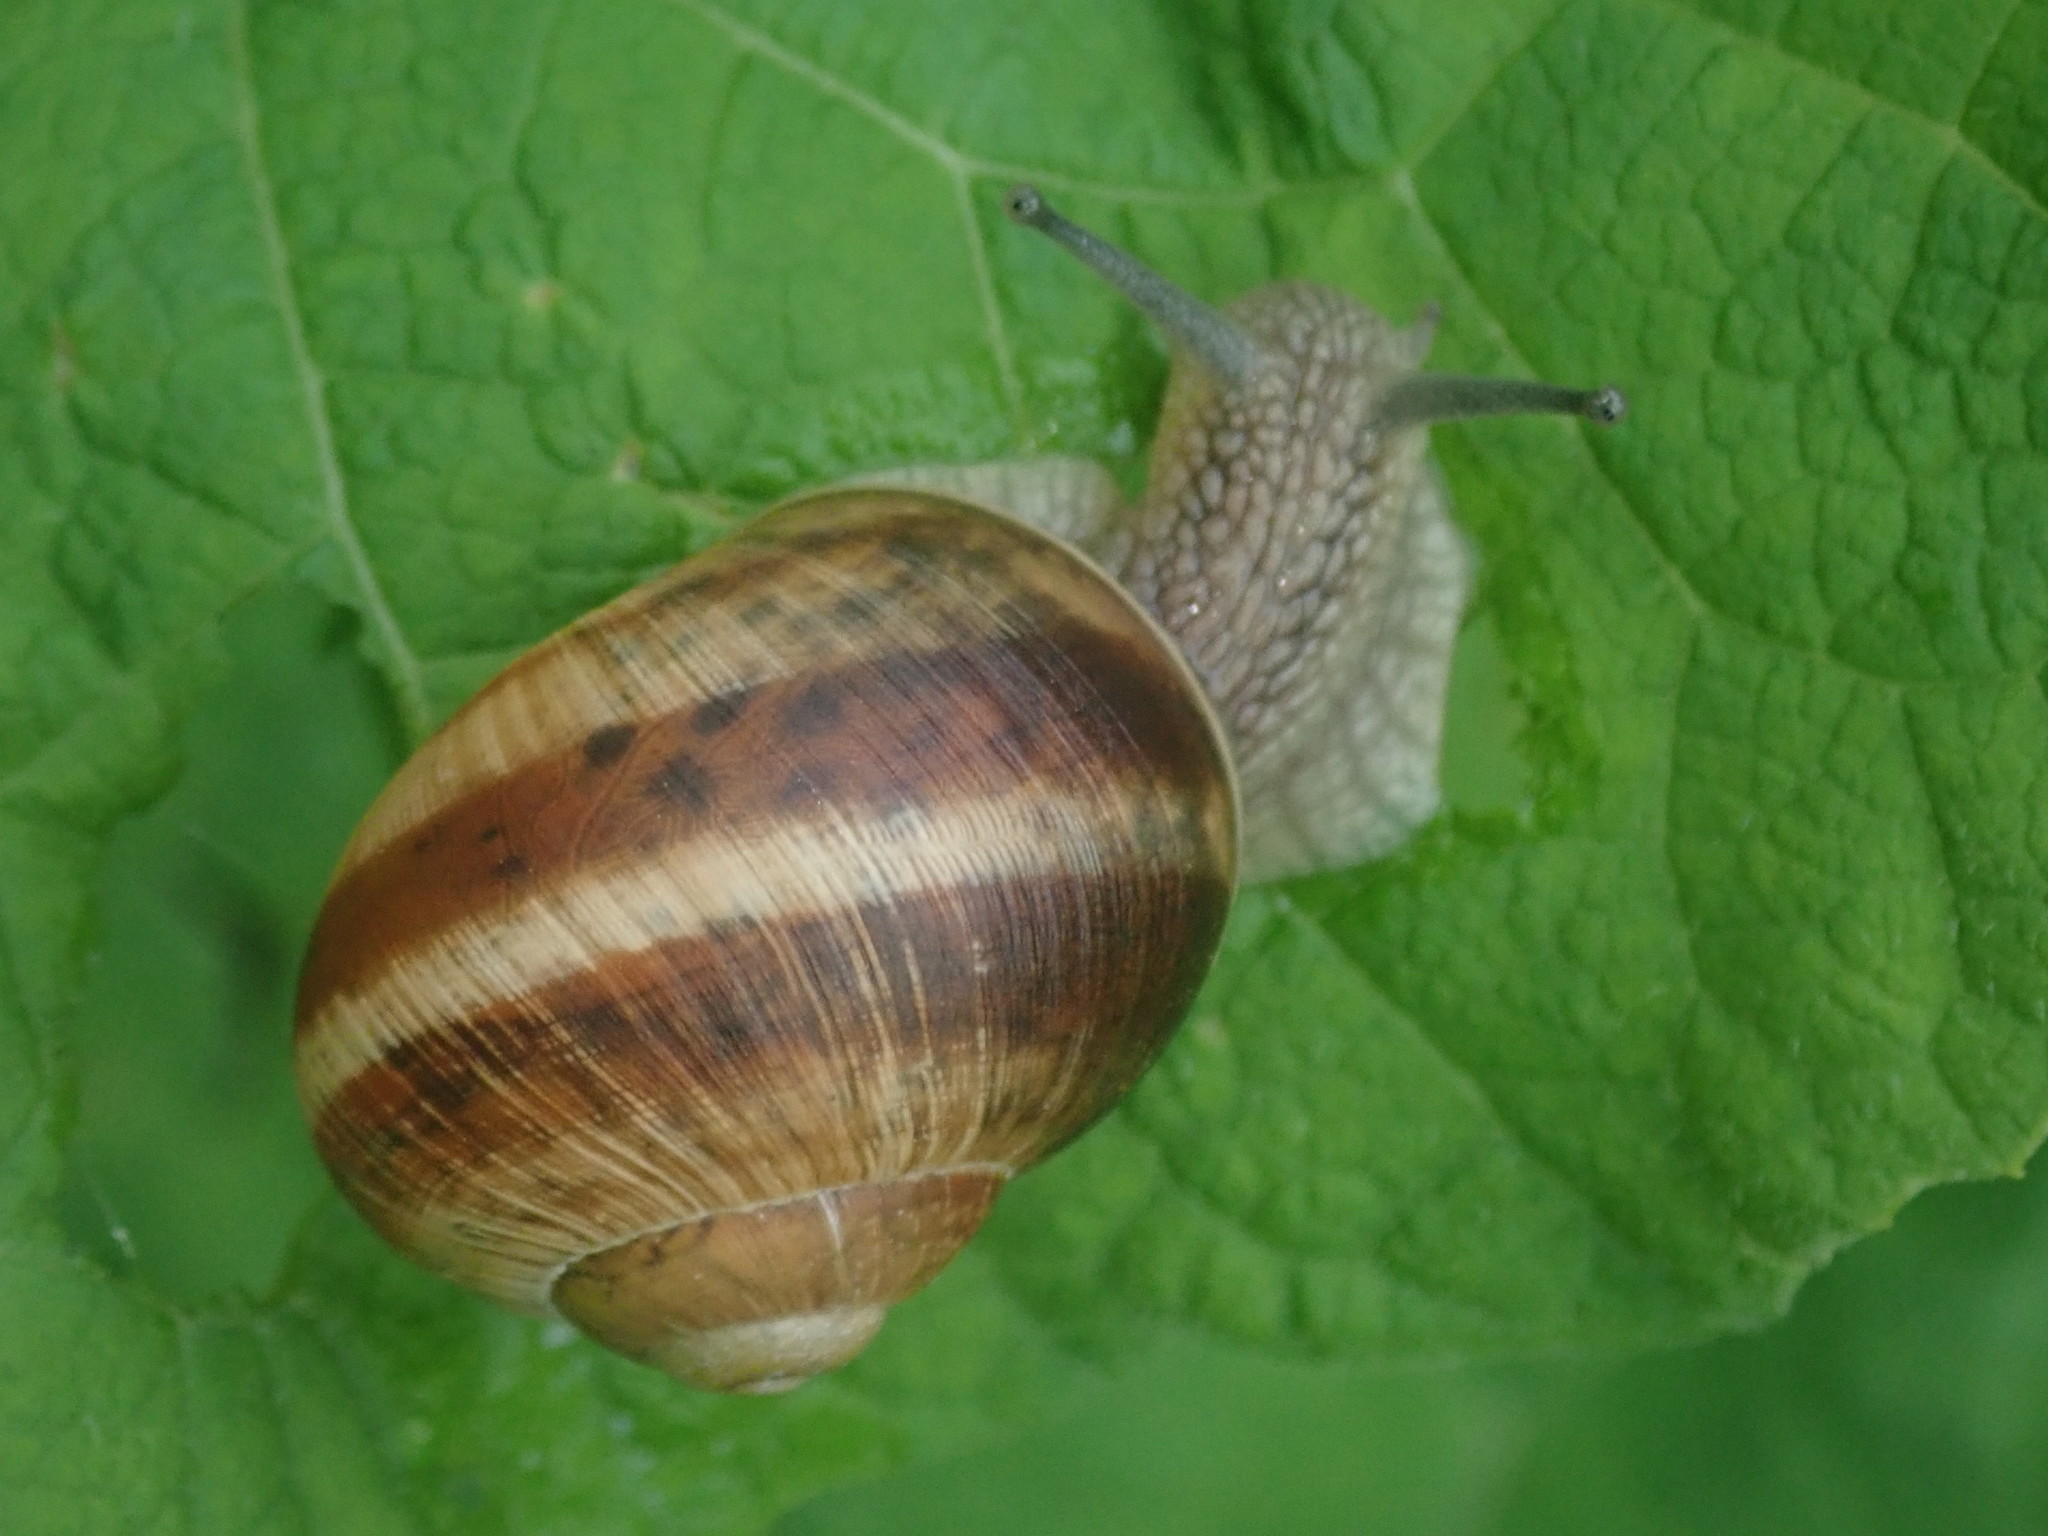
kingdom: Animalia
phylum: Mollusca
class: Gastropoda
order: Stylommatophora
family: Helicidae
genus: Helix
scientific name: Helix pomatia
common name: Roman snail
